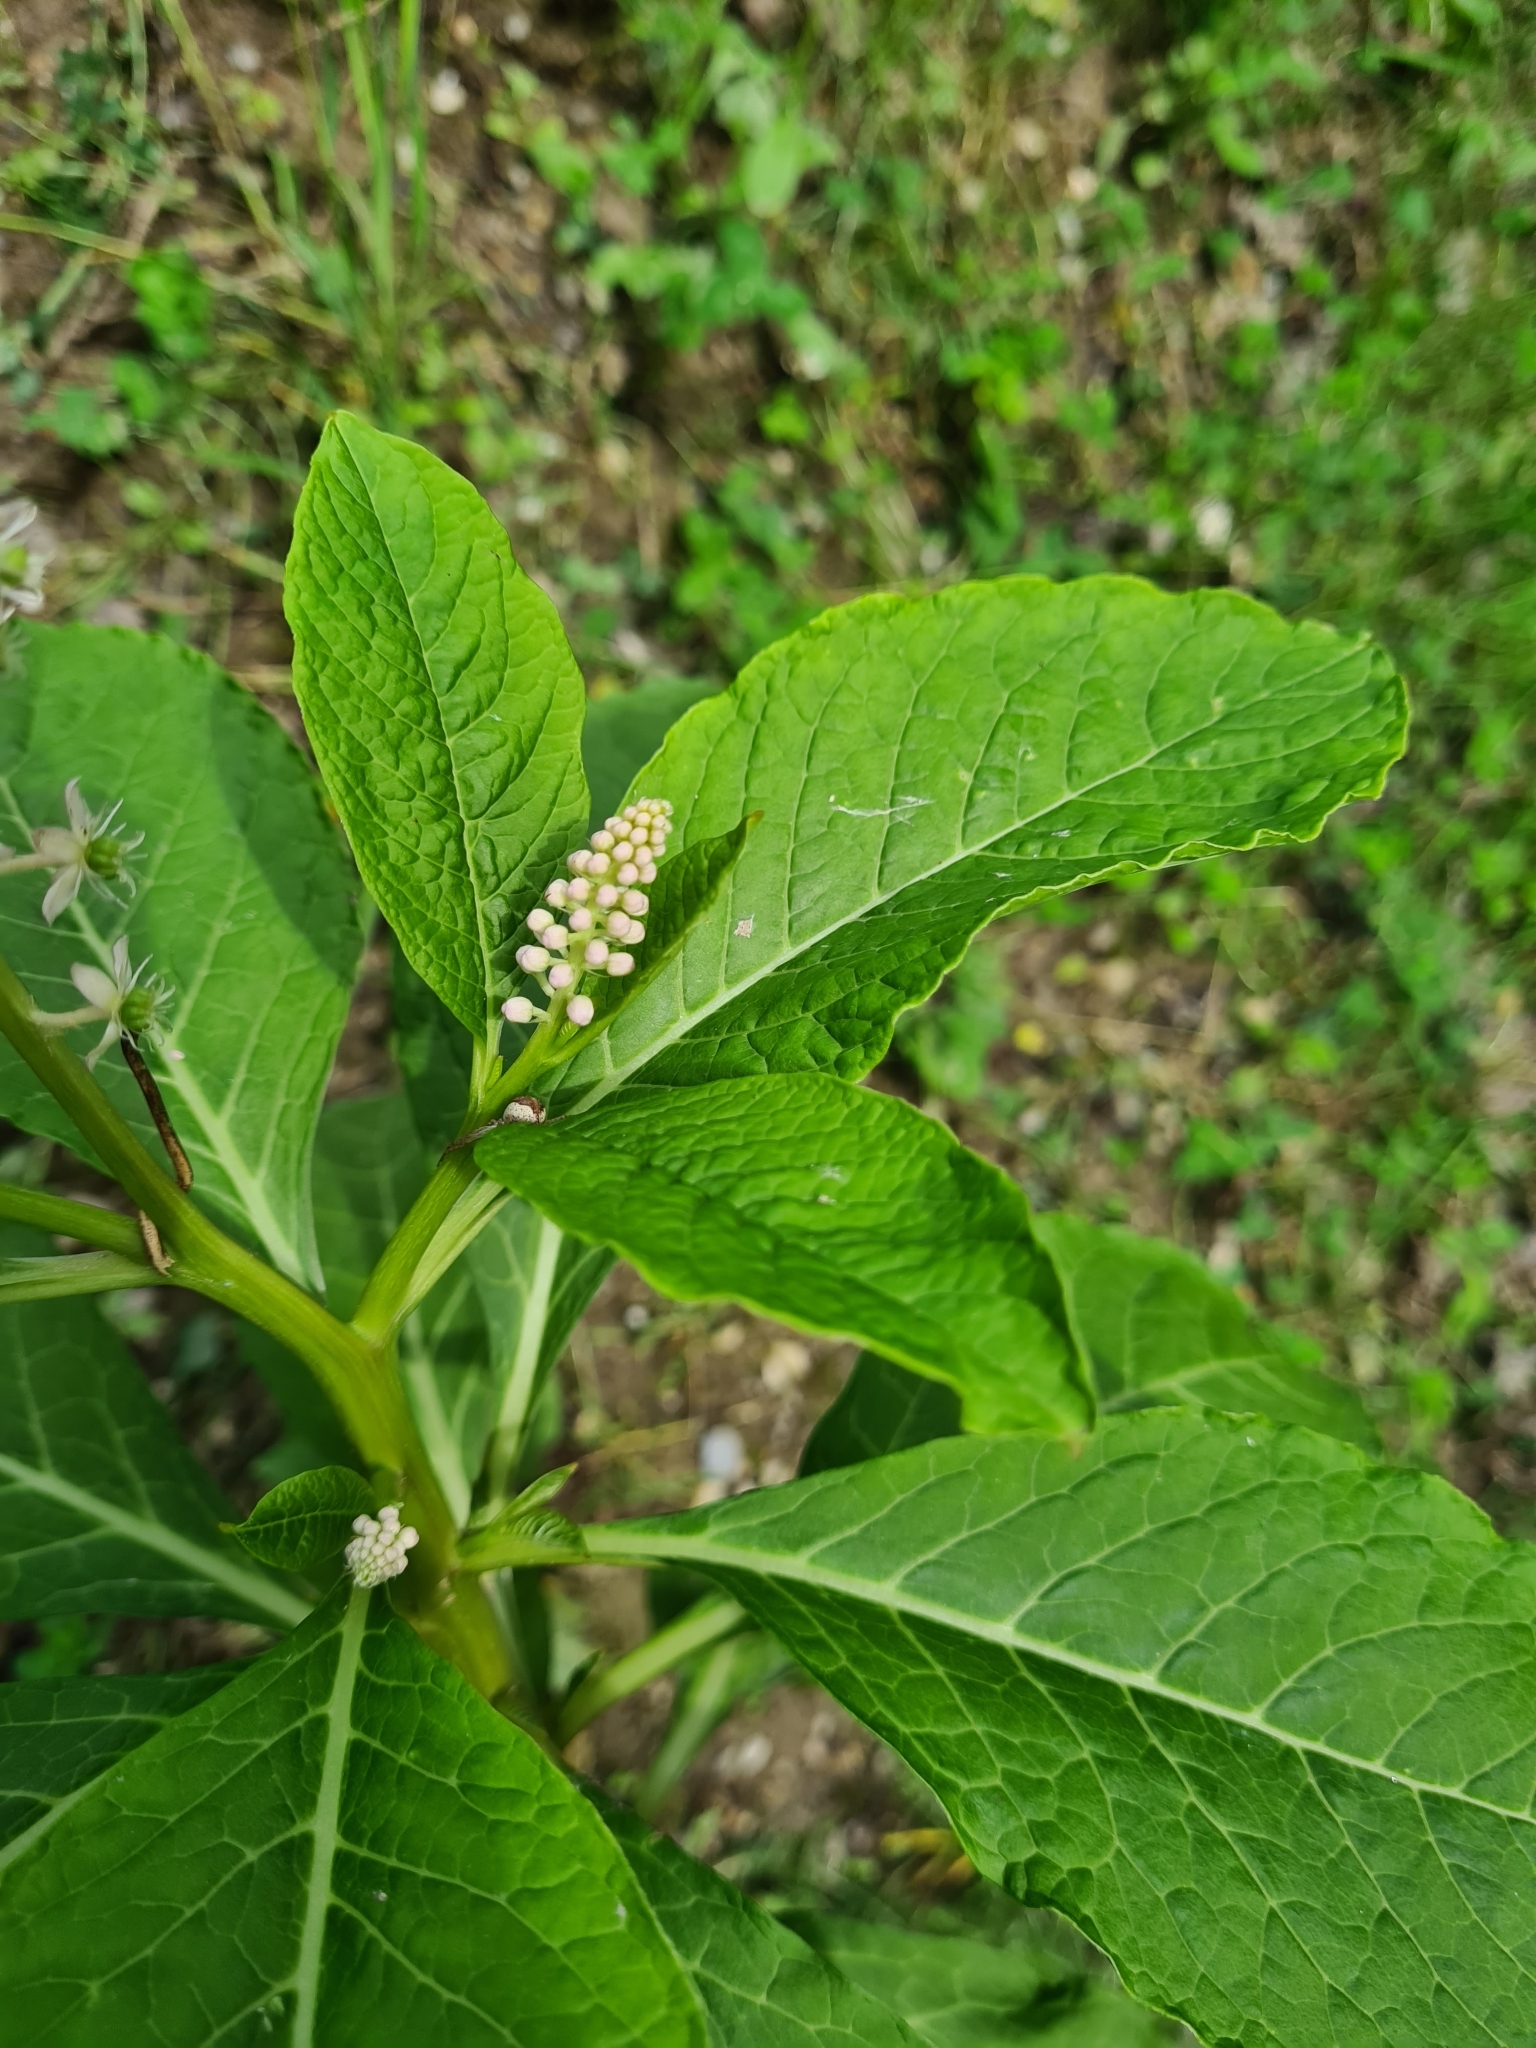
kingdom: Plantae
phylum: Tracheophyta
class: Magnoliopsida
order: Caryophyllales
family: Phytolaccaceae
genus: Phytolacca
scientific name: Phytolacca acinosa
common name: Indian pokeweed
